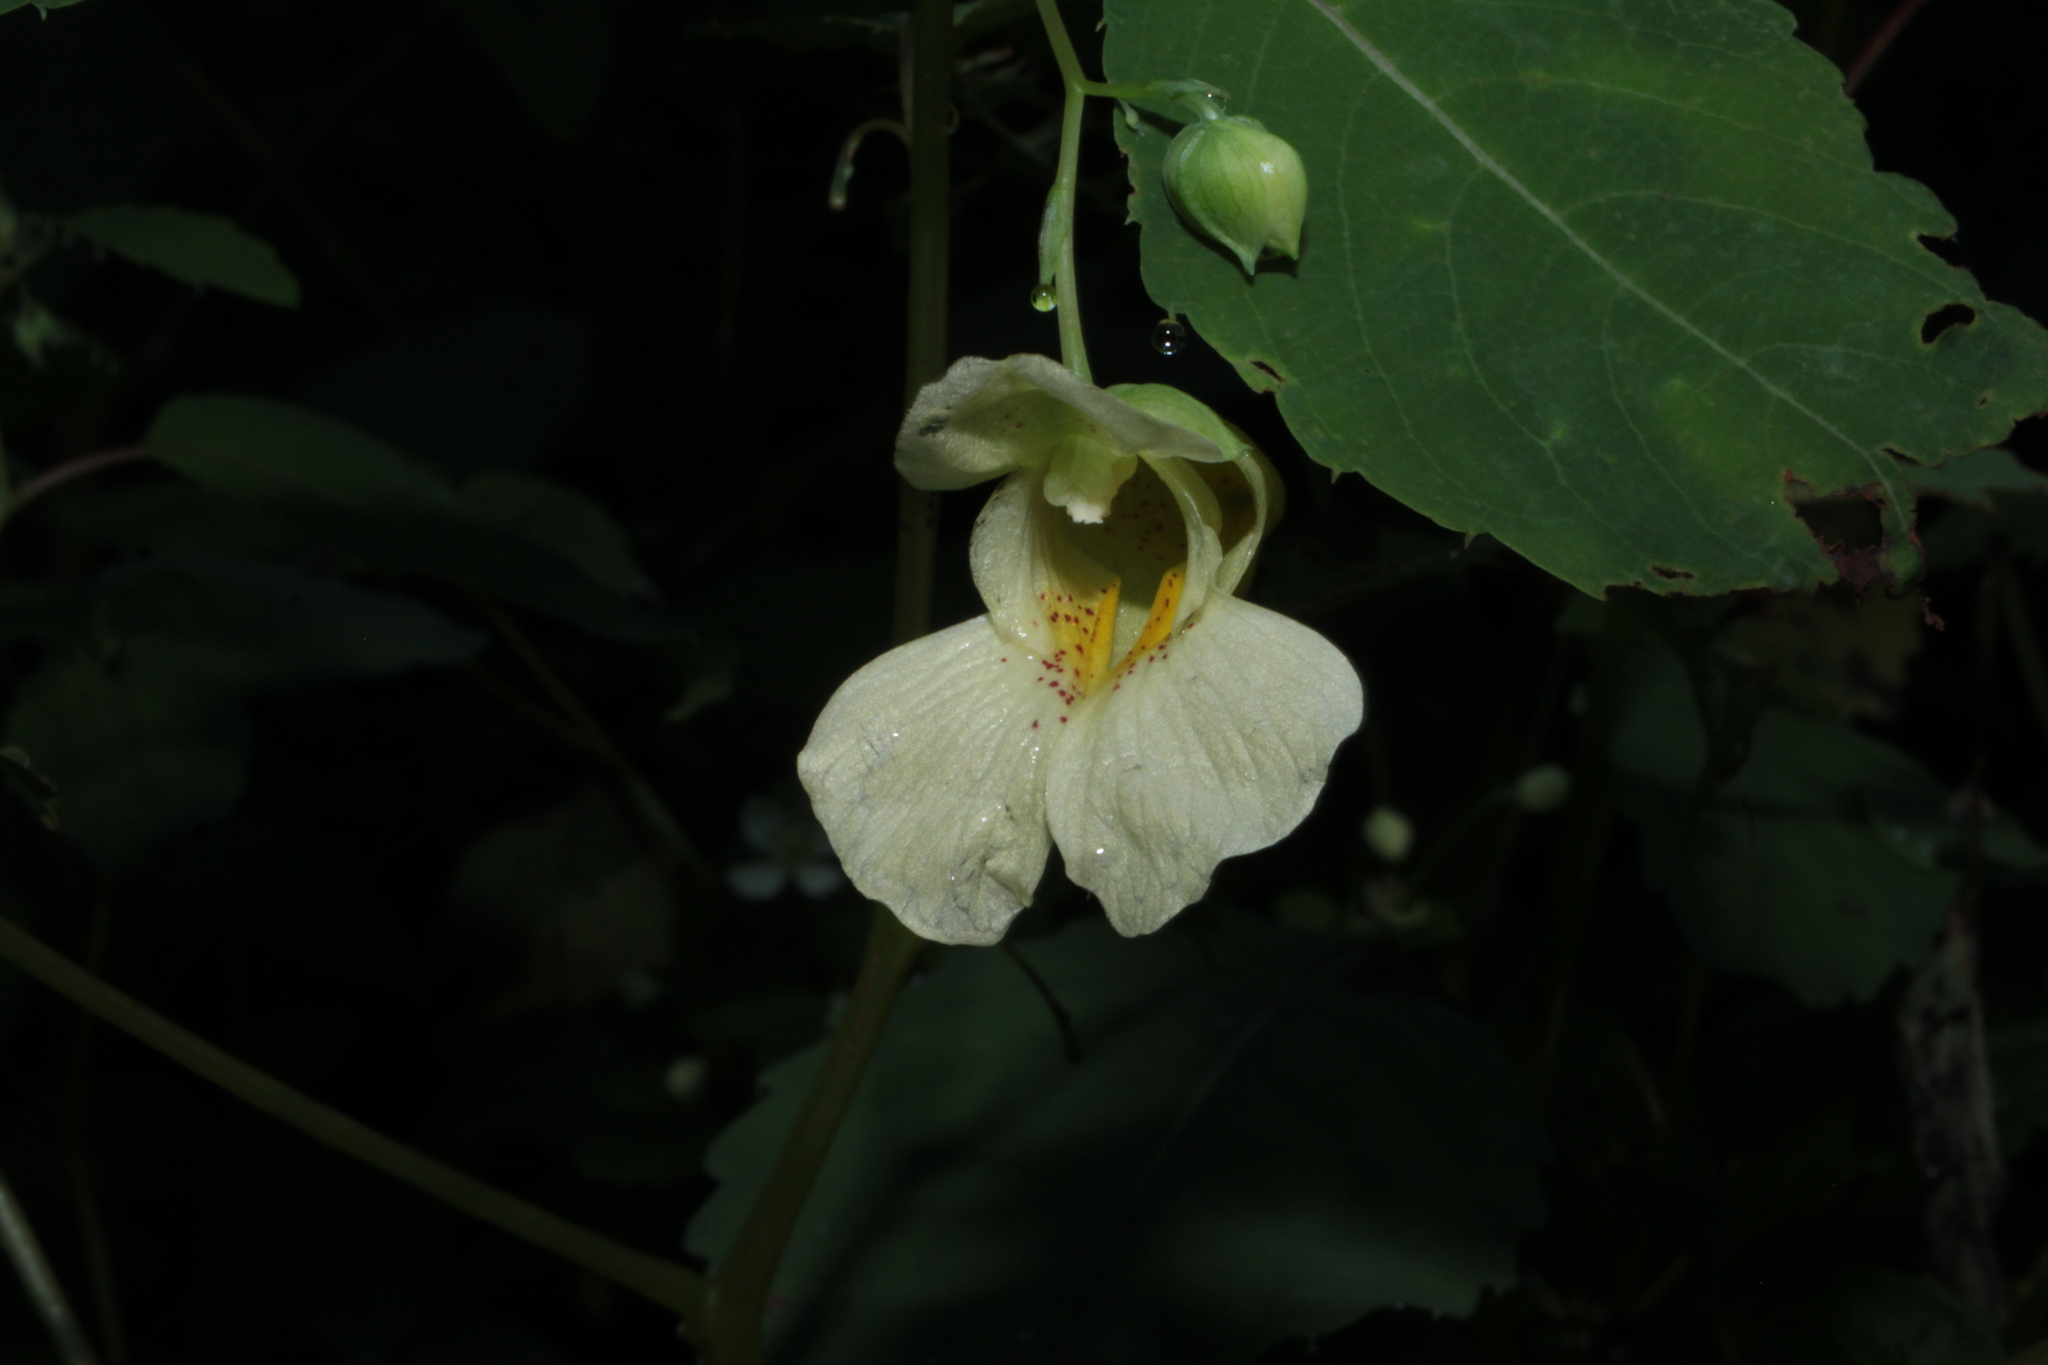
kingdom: Plantae
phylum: Tracheophyta
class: Magnoliopsida
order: Ericales
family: Balsaminaceae
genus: Impatiens
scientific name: Impatiens pallida
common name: Pale snapweed
